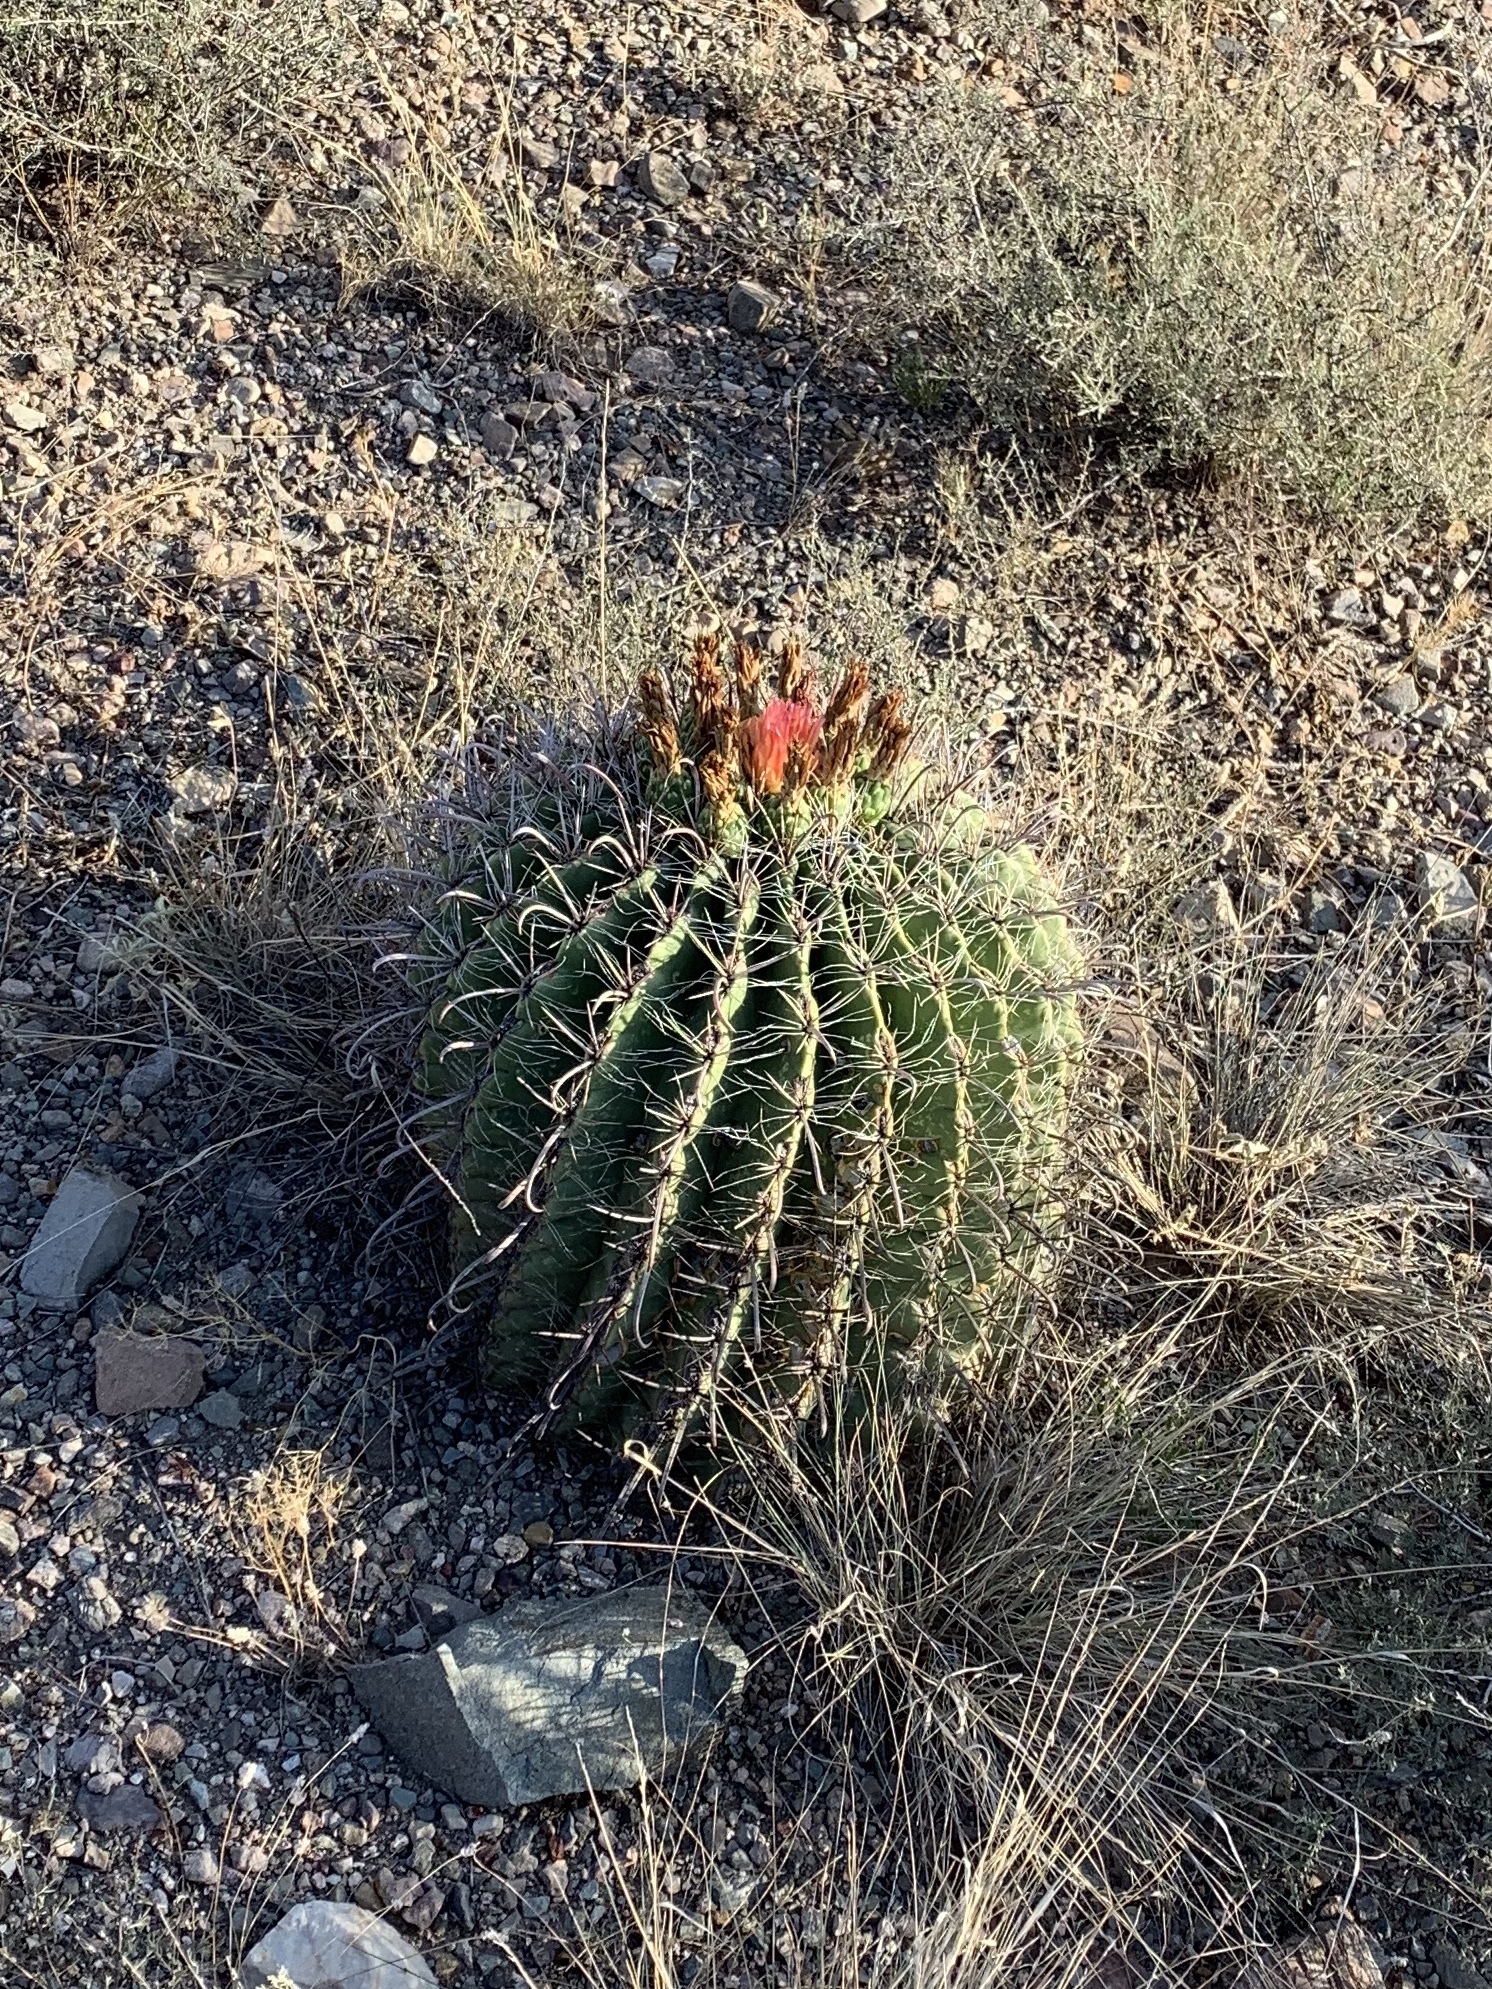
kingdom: Plantae
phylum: Tracheophyta
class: Magnoliopsida
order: Caryophyllales
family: Cactaceae
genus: Ferocactus
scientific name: Ferocactus wislizeni
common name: Candy barrel cactus
